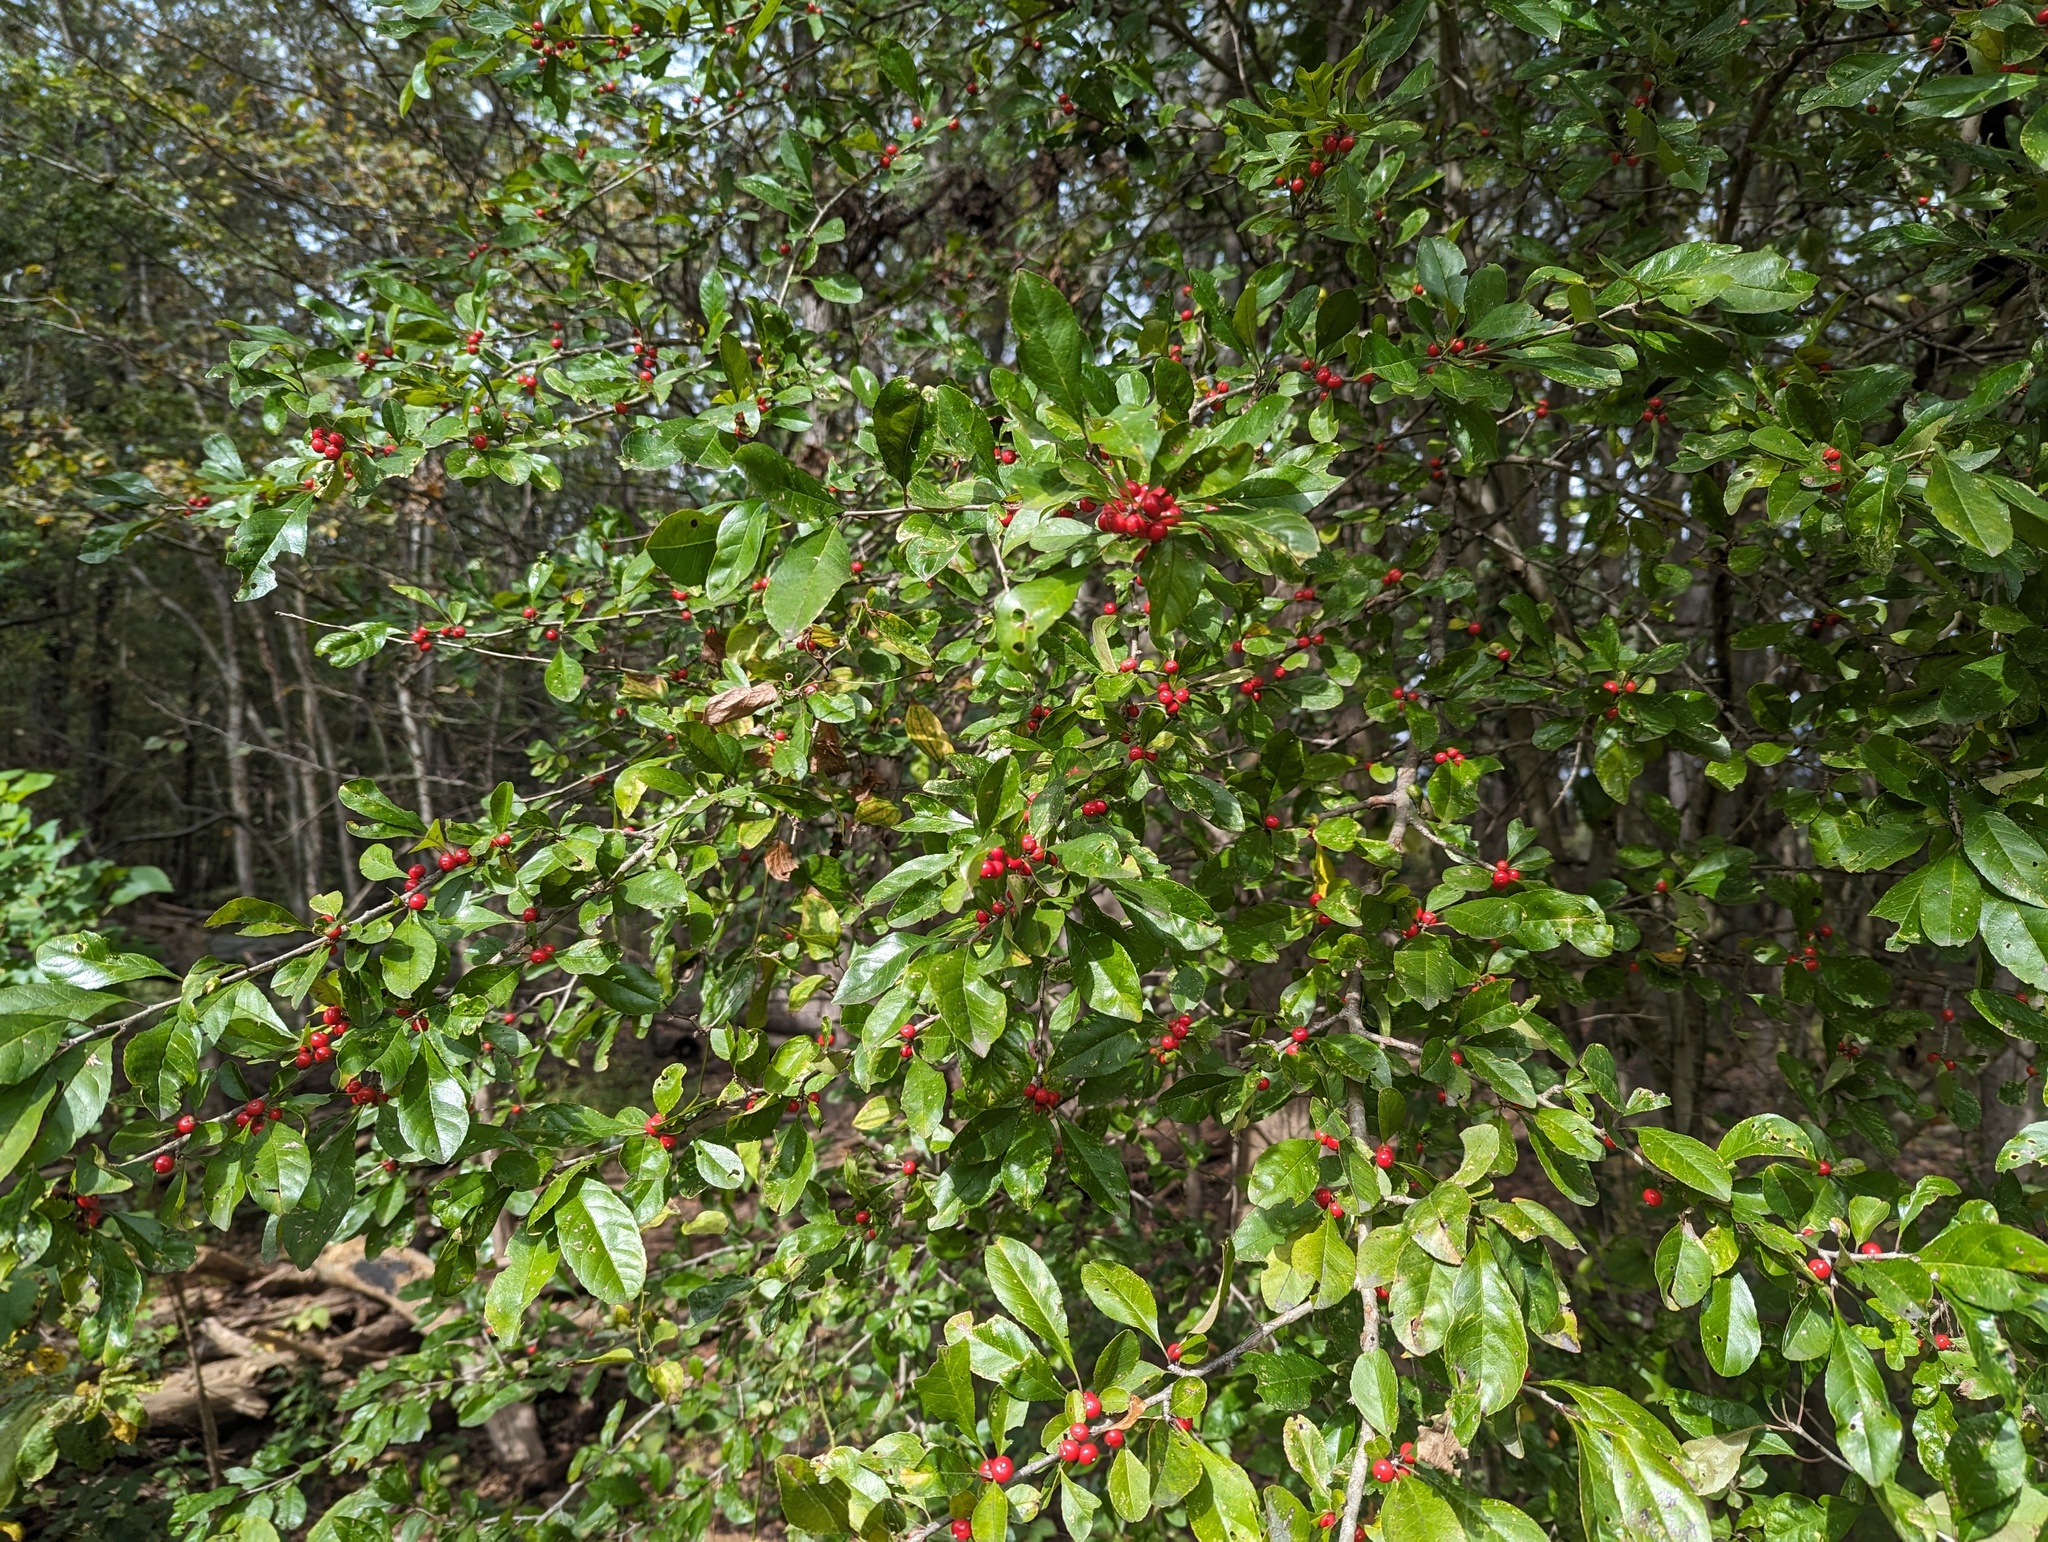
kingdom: Plantae
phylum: Tracheophyta
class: Magnoliopsida
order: Aquifoliales
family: Aquifoliaceae
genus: Ilex
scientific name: Ilex decidua
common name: Possum-haw
